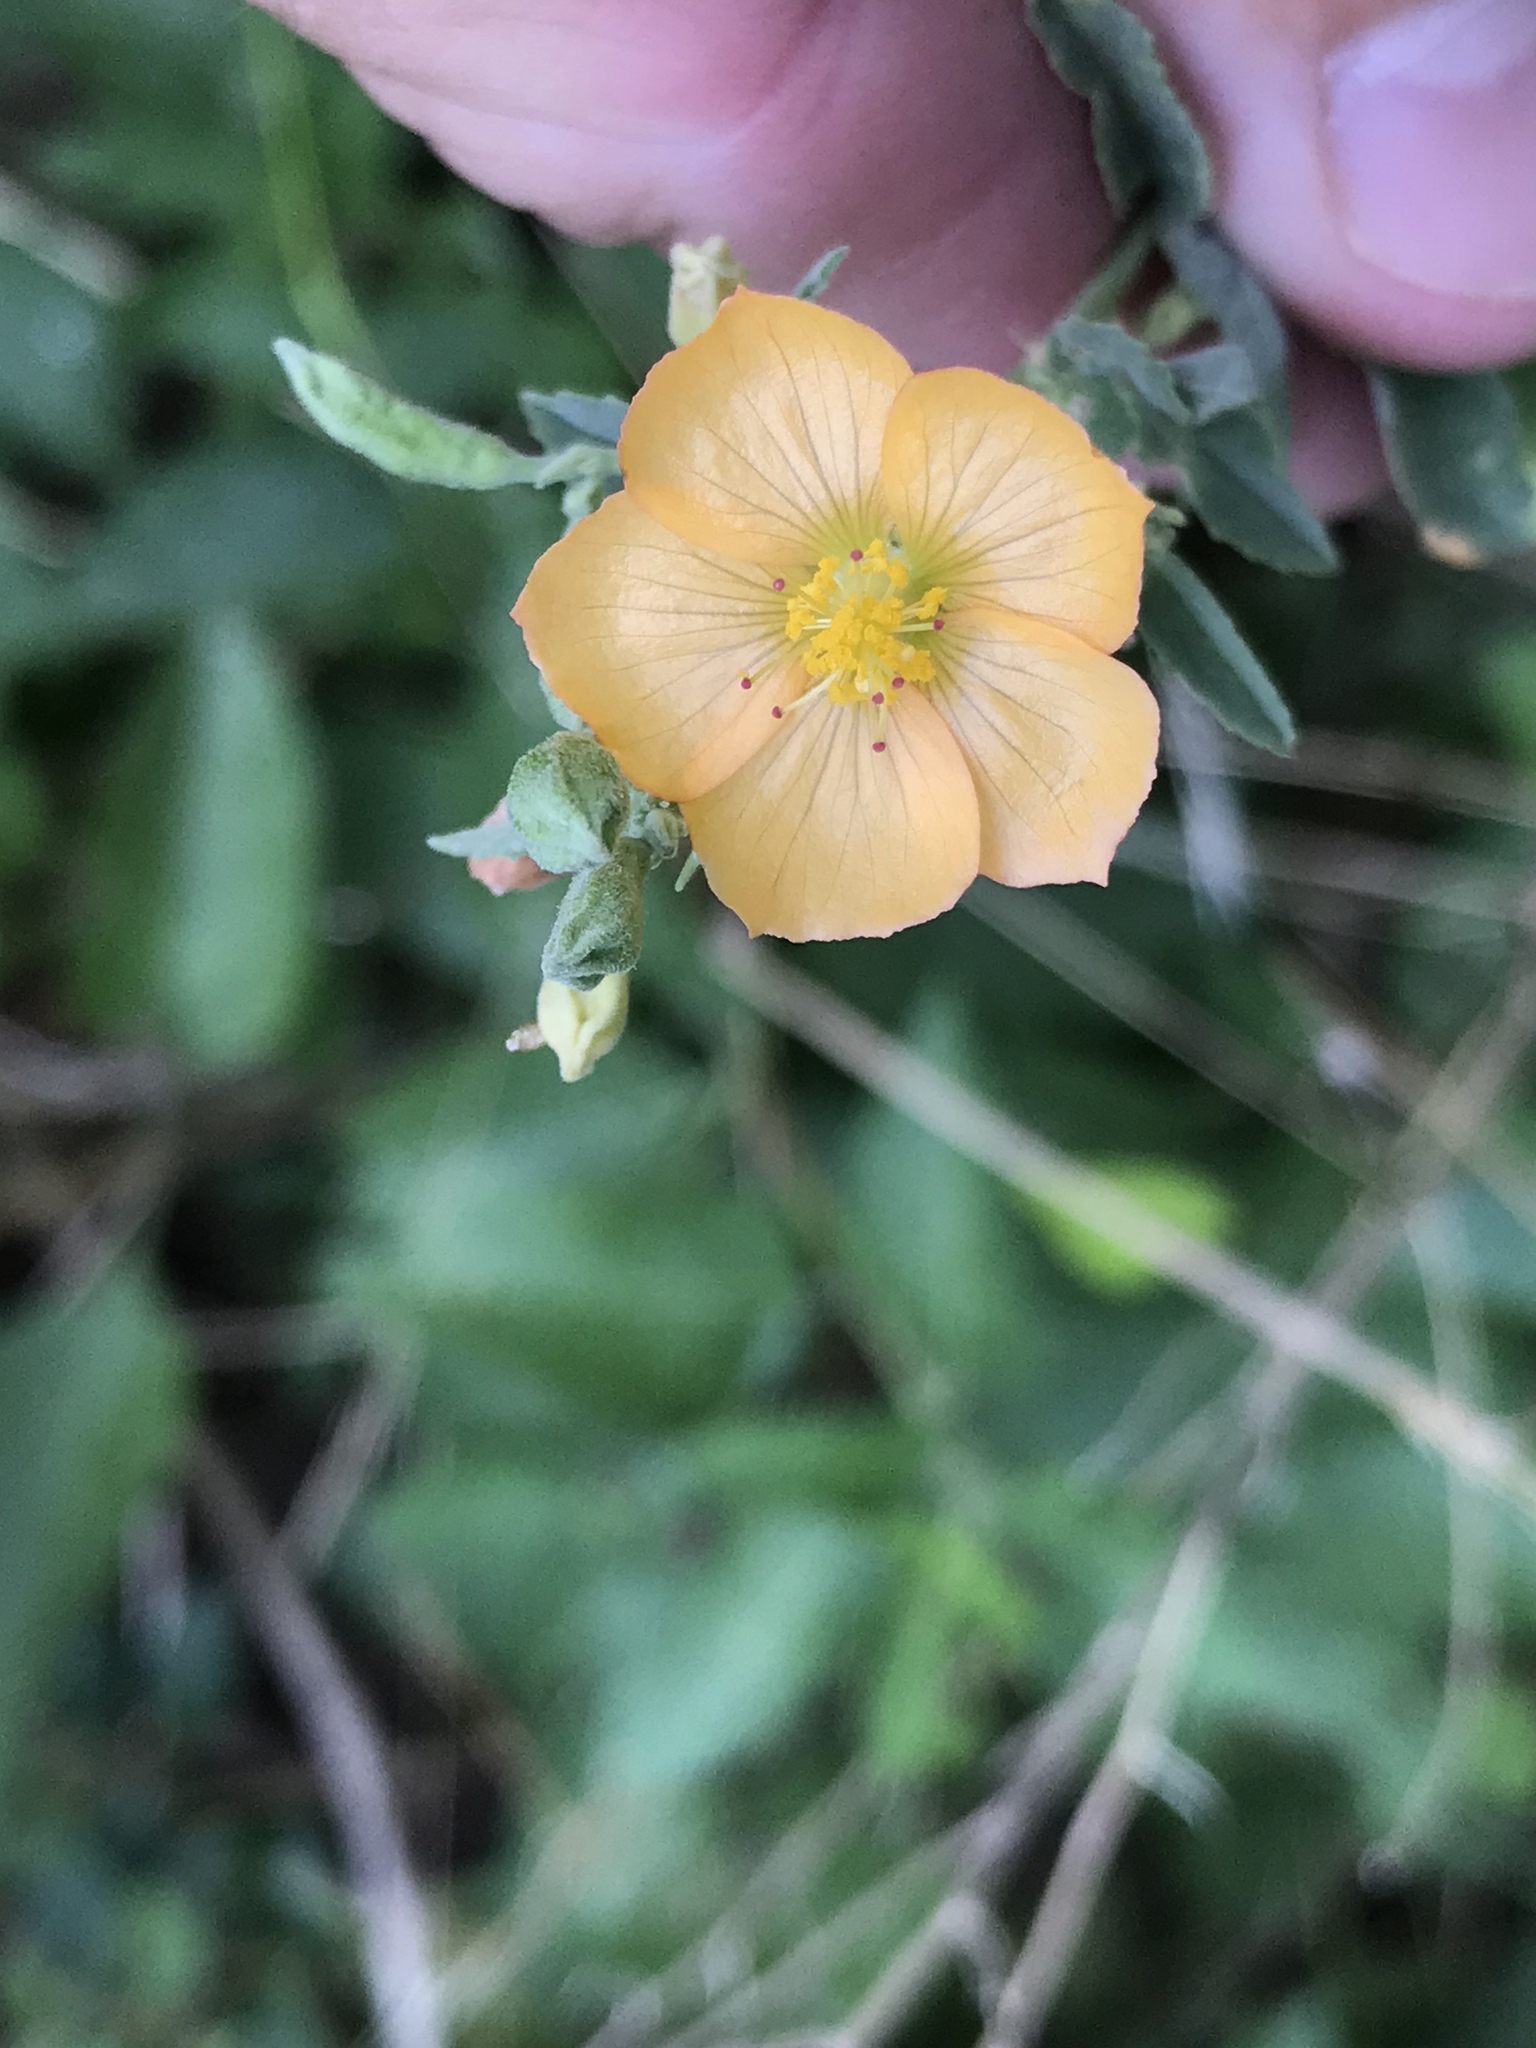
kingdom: Plantae
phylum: Tracheophyta
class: Magnoliopsida
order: Malvales
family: Malvaceae
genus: Abutilon
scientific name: Abutilon fruticosum
